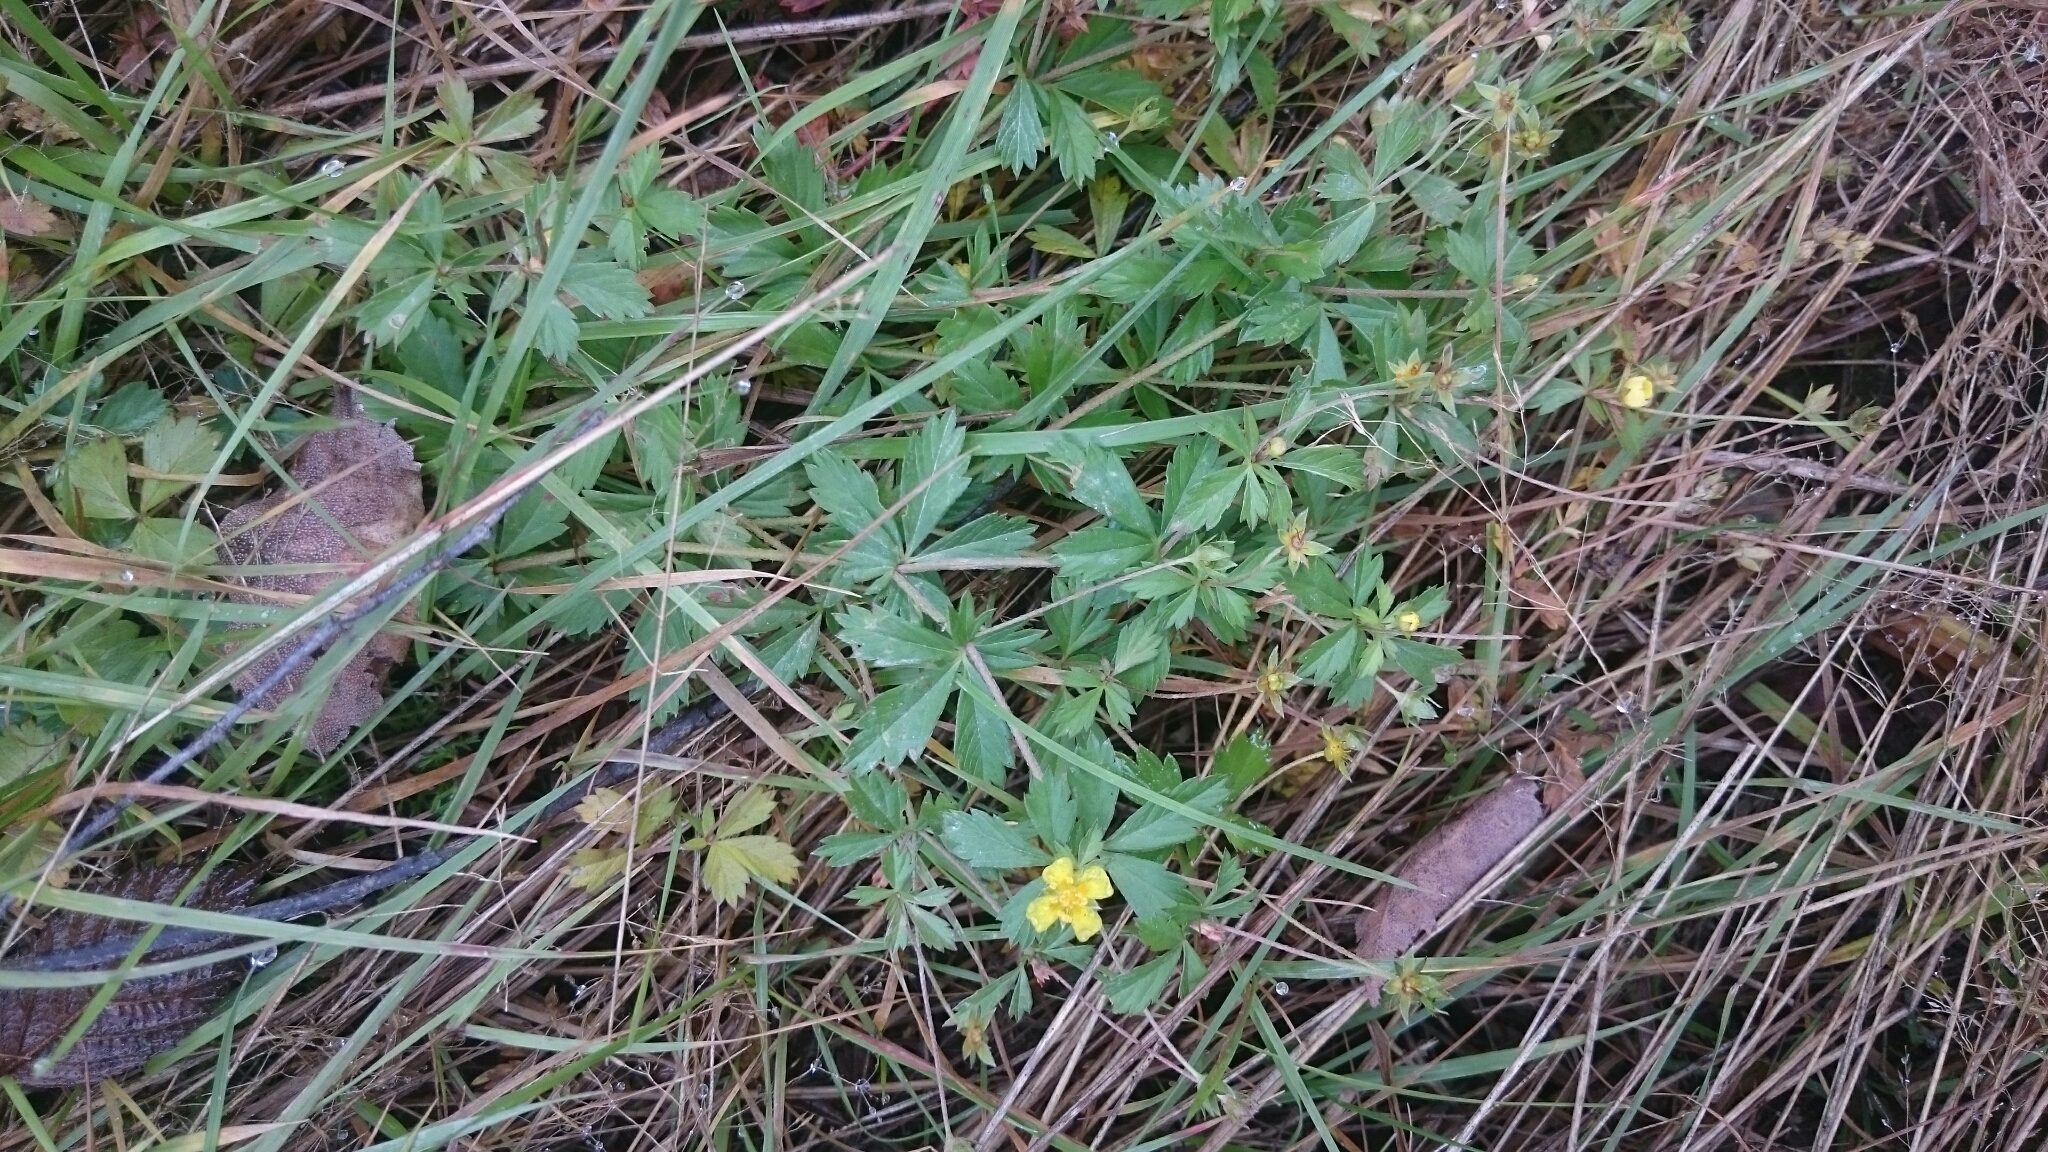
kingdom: Plantae
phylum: Tracheophyta
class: Magnoliopsida
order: Rosales
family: Rosaceae
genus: Potentilla
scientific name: Potentilla erecta
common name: Tormentil
